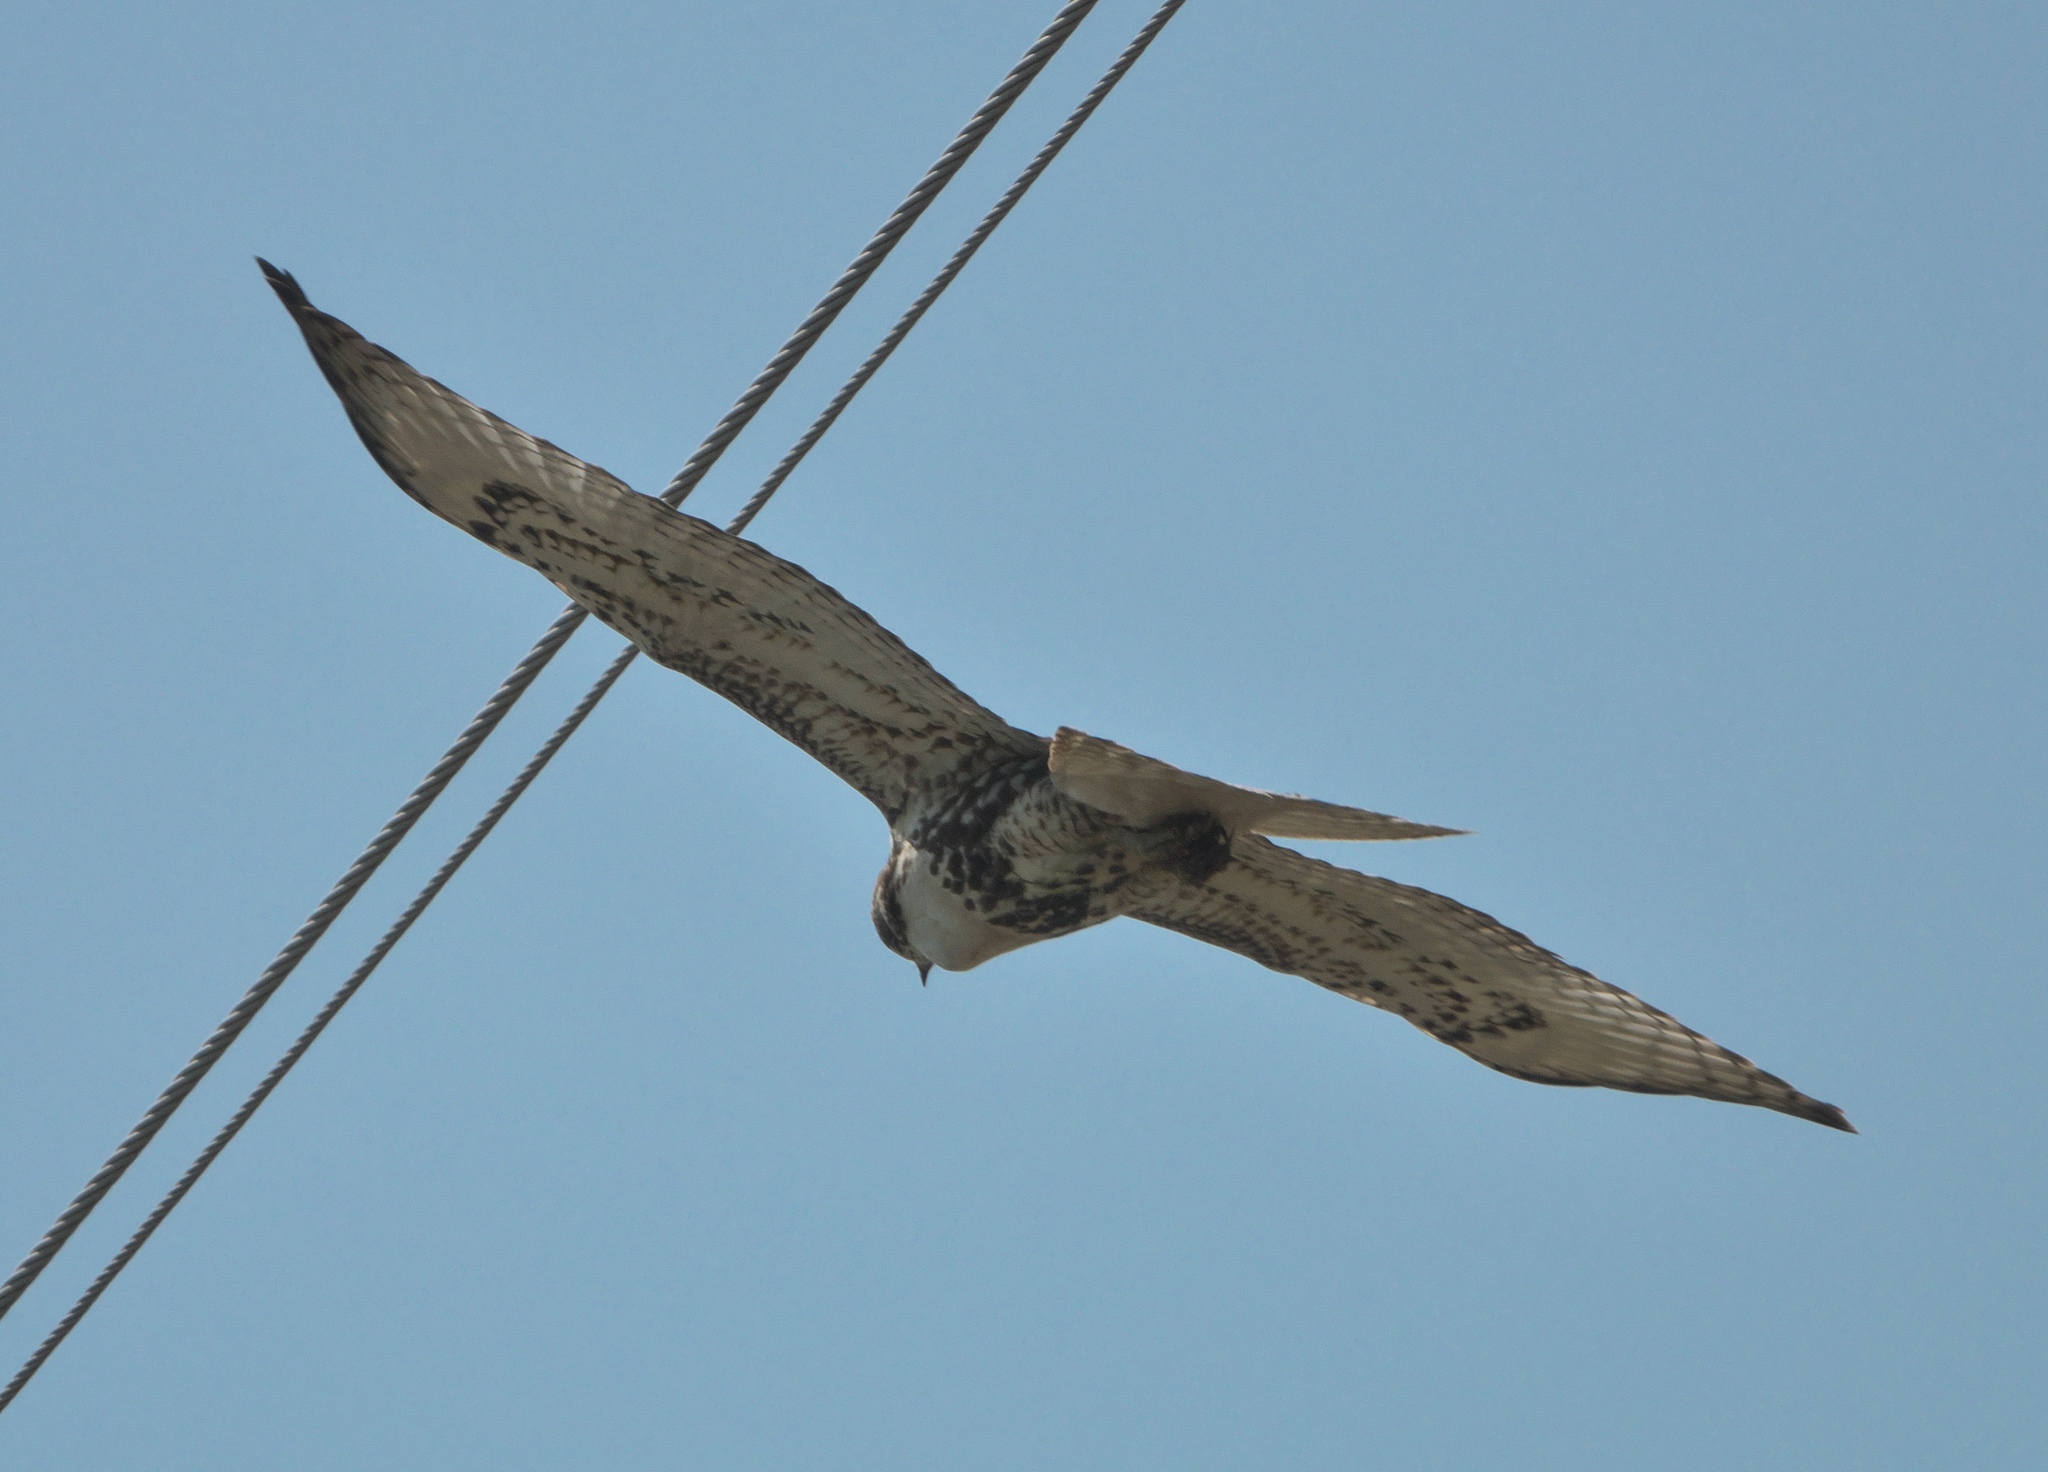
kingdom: Animalia
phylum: Chordata
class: Aves
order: Accipitriformes
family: Accipitridae
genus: Buteo
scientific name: Buteo jamaicensis
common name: Red-tailed hawk
